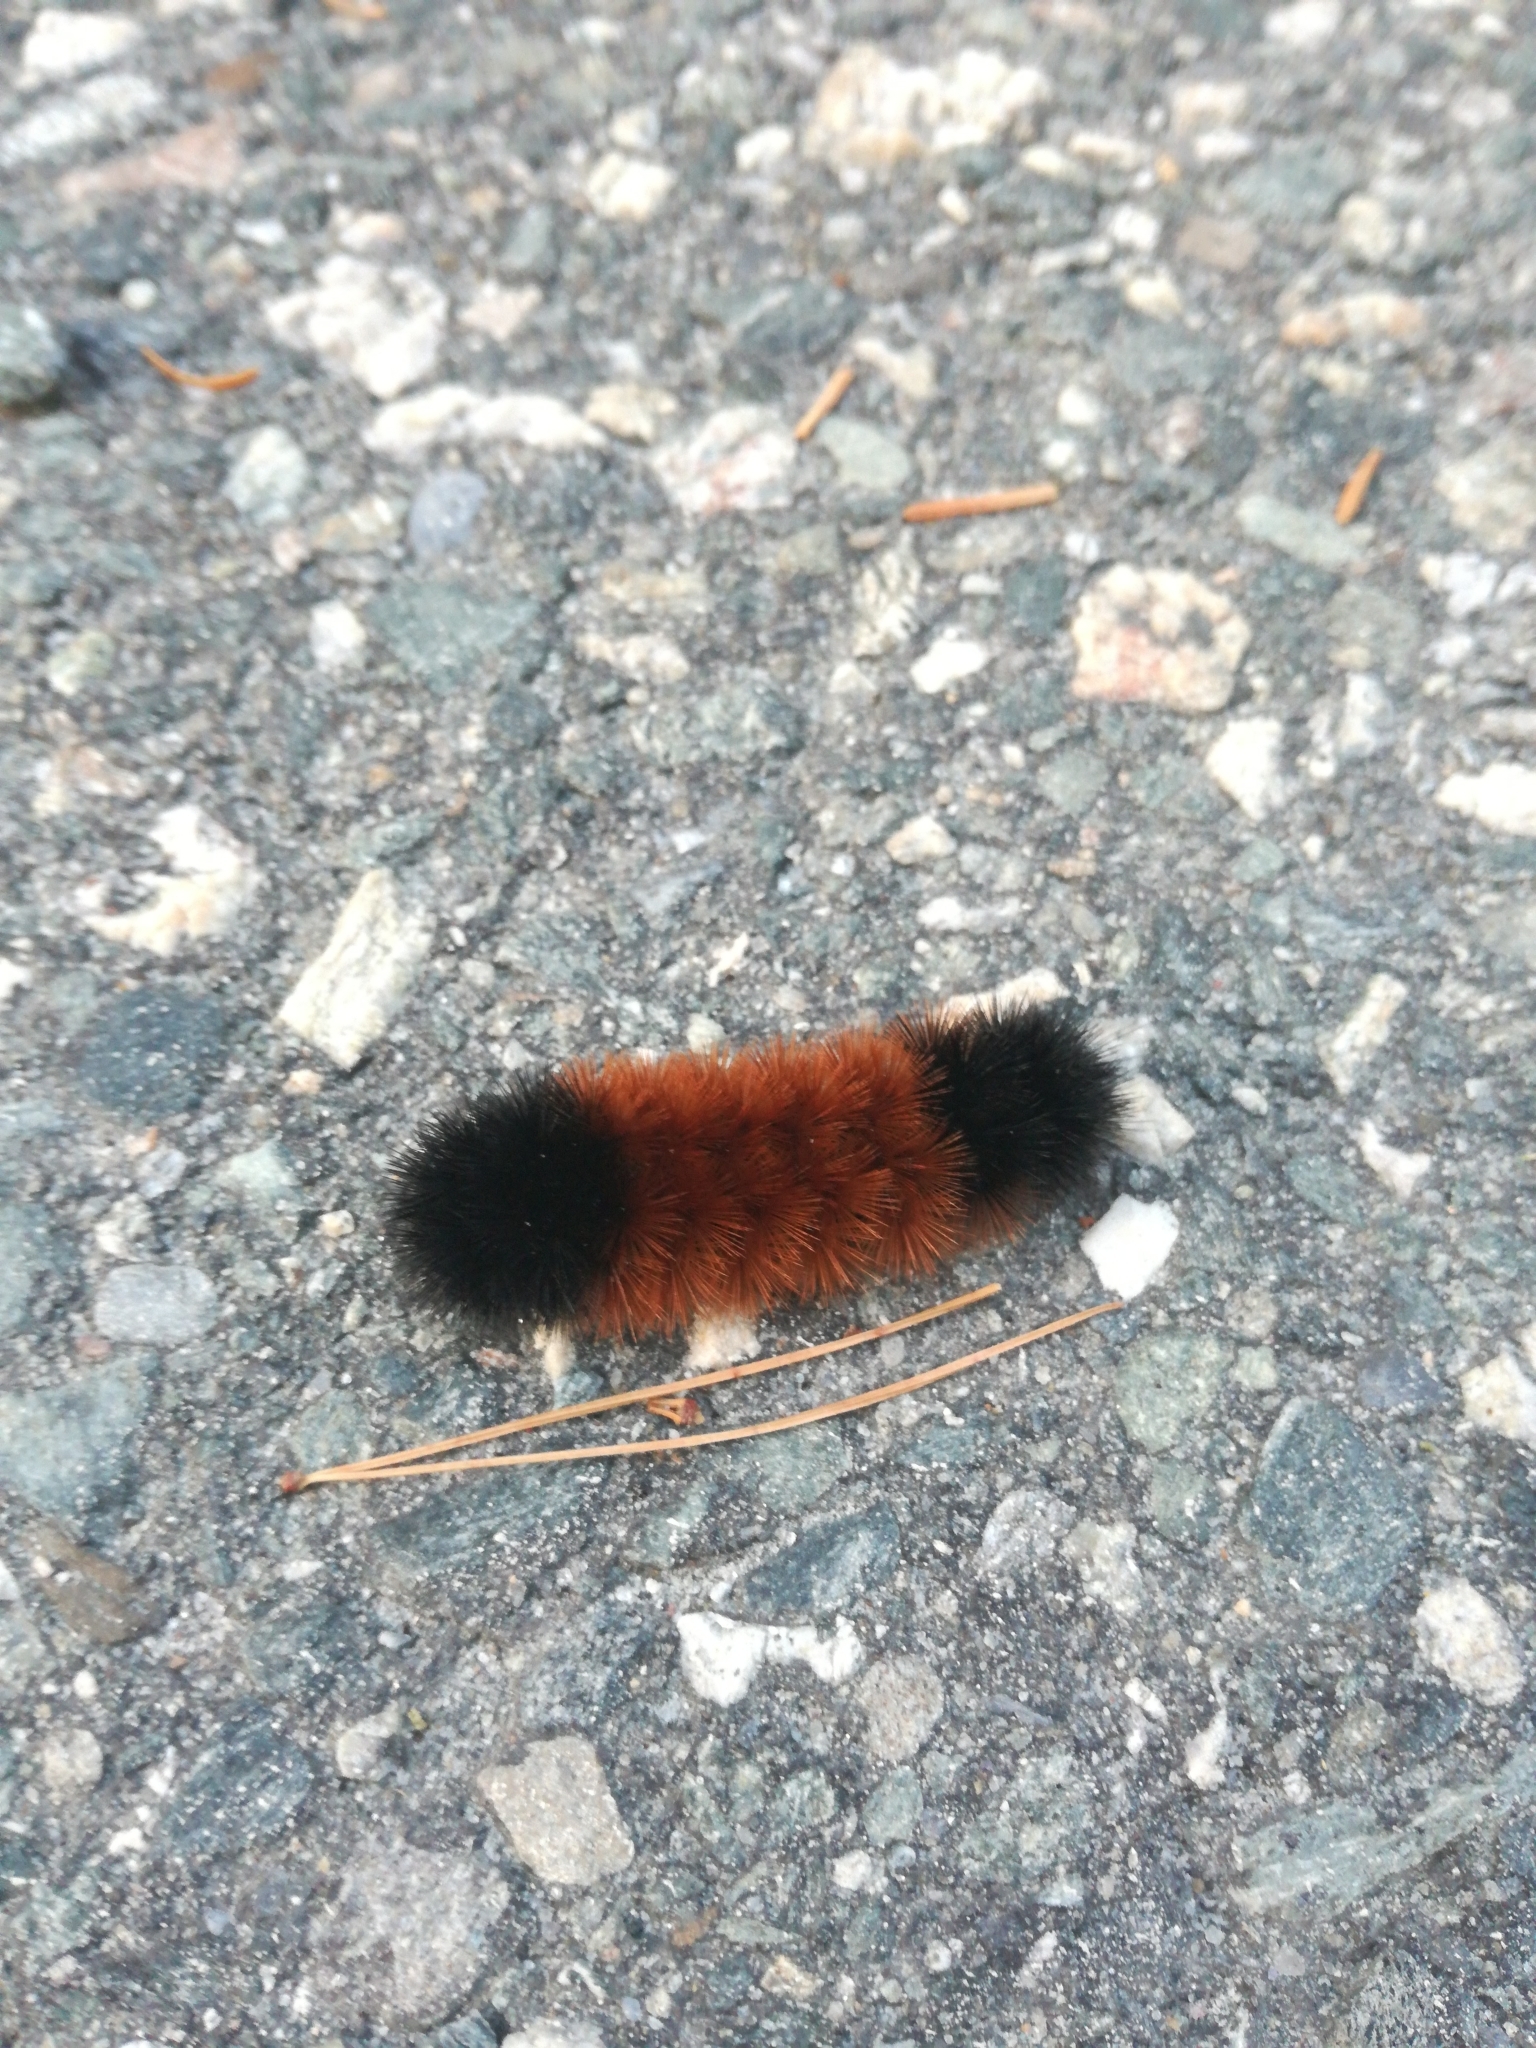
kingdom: Animalia
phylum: Arthropoda
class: Insecta
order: Lepidoptera
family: Erebidae
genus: Pyrrharctia
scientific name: Pyrrharctia isabella
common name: Isabella tiger moth
